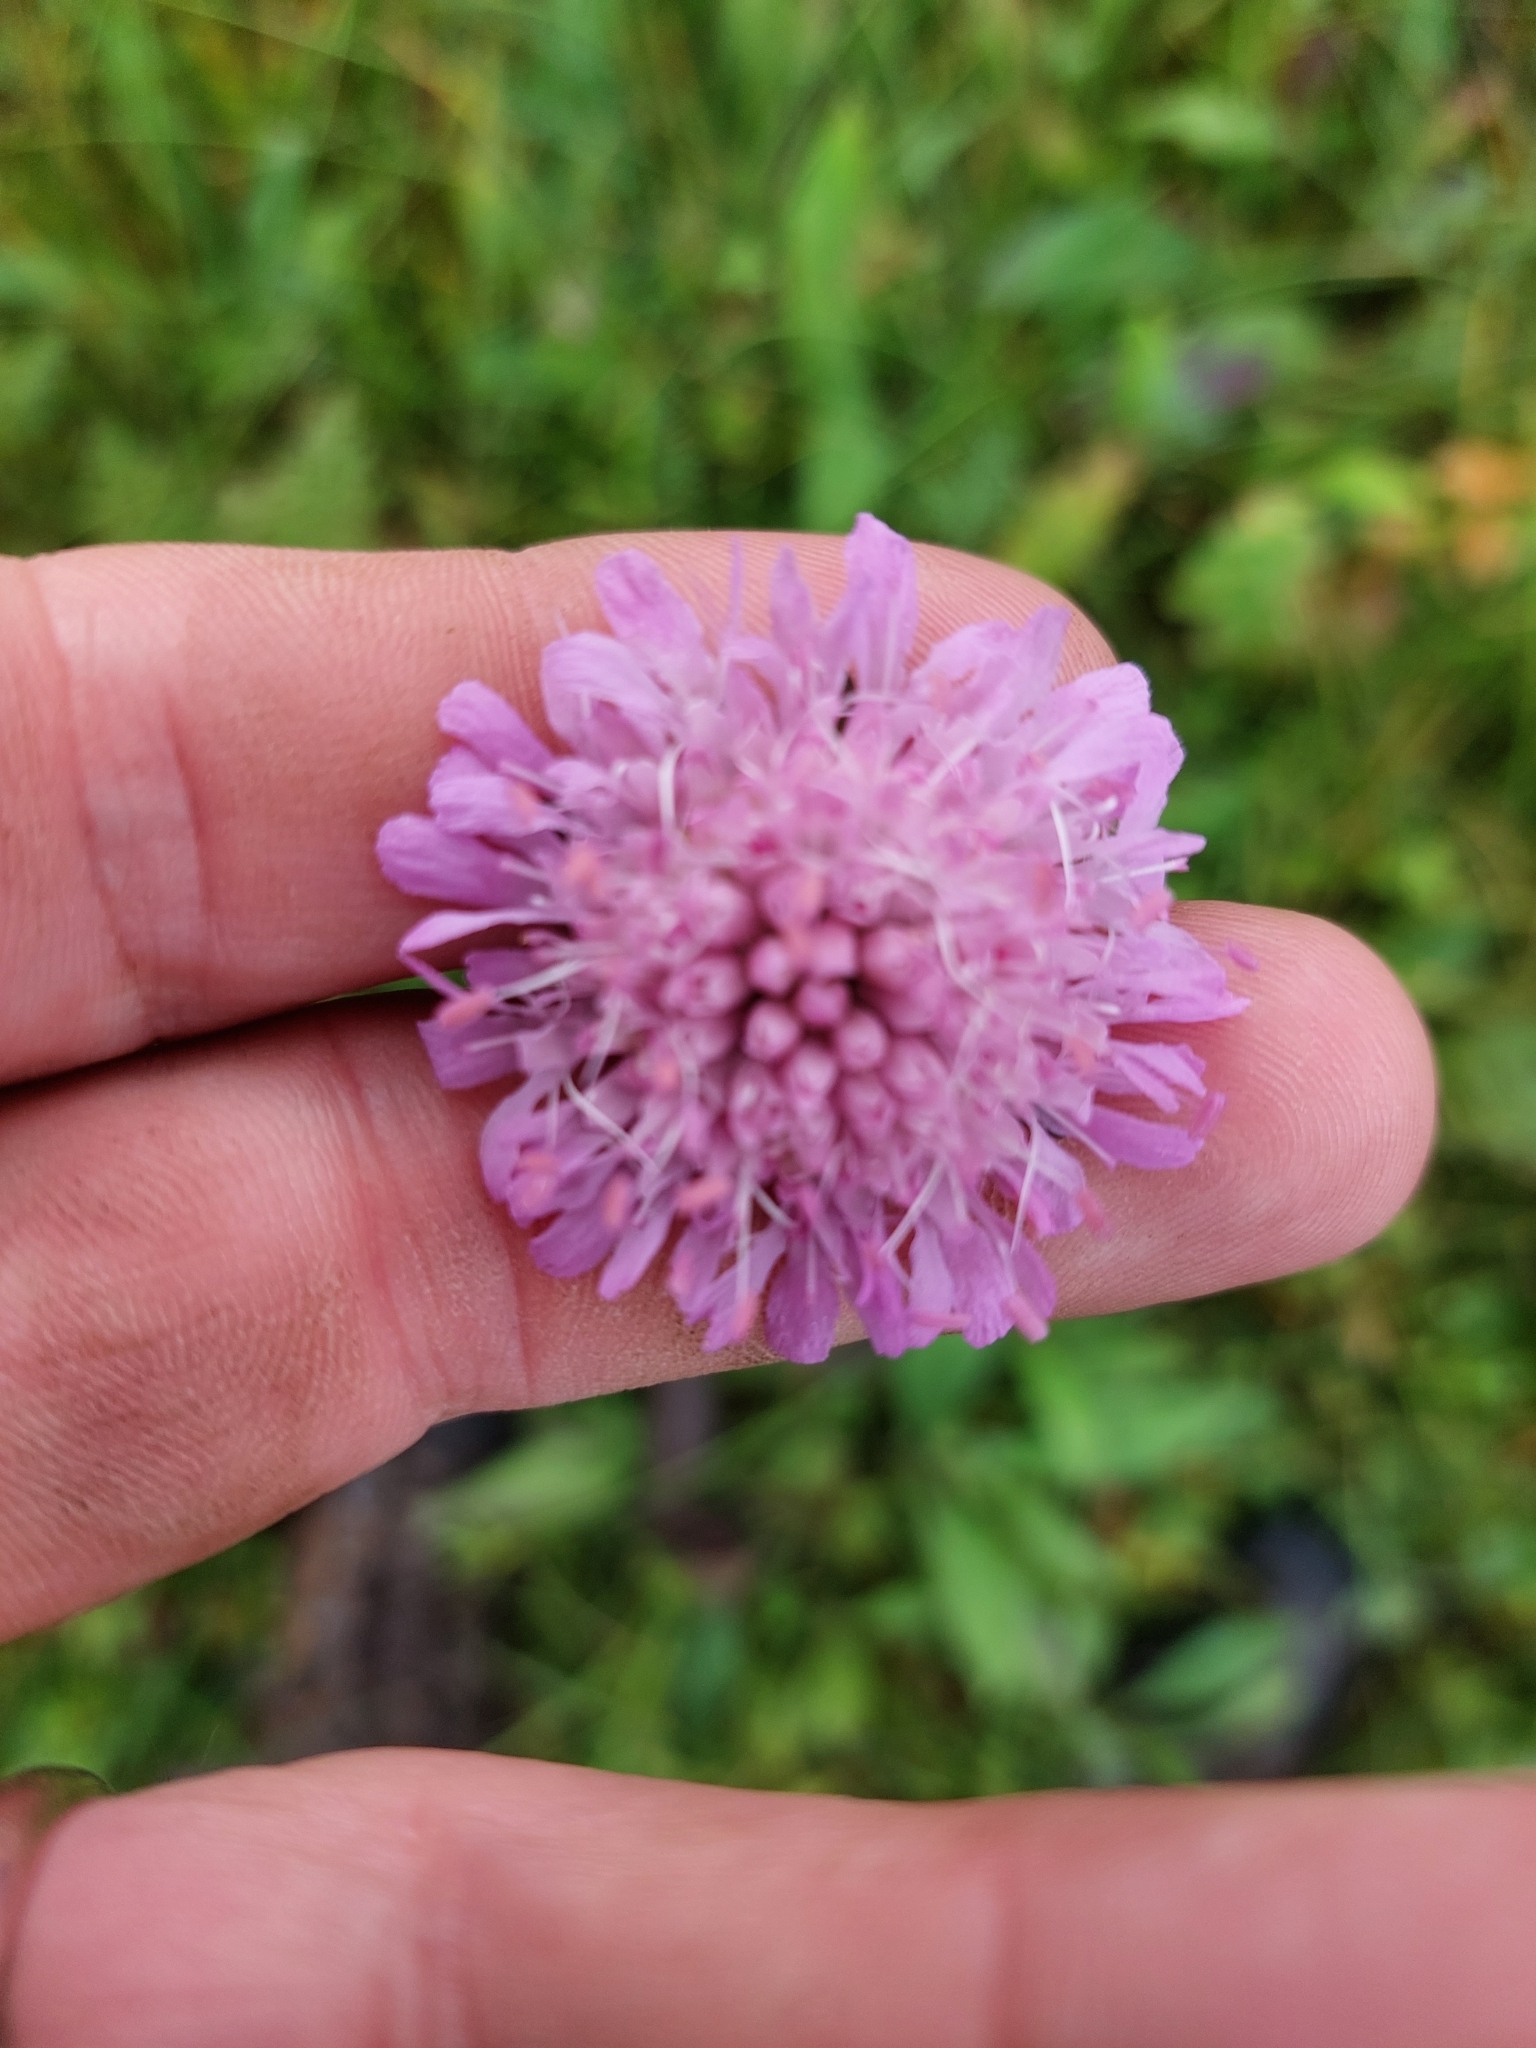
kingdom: Plantae
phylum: Tracheophyta
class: Magnoliopsida
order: Dipsacales
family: Caprifoliaceae
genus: Knautia
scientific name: Knautia arvensis
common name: Field scabiosa
